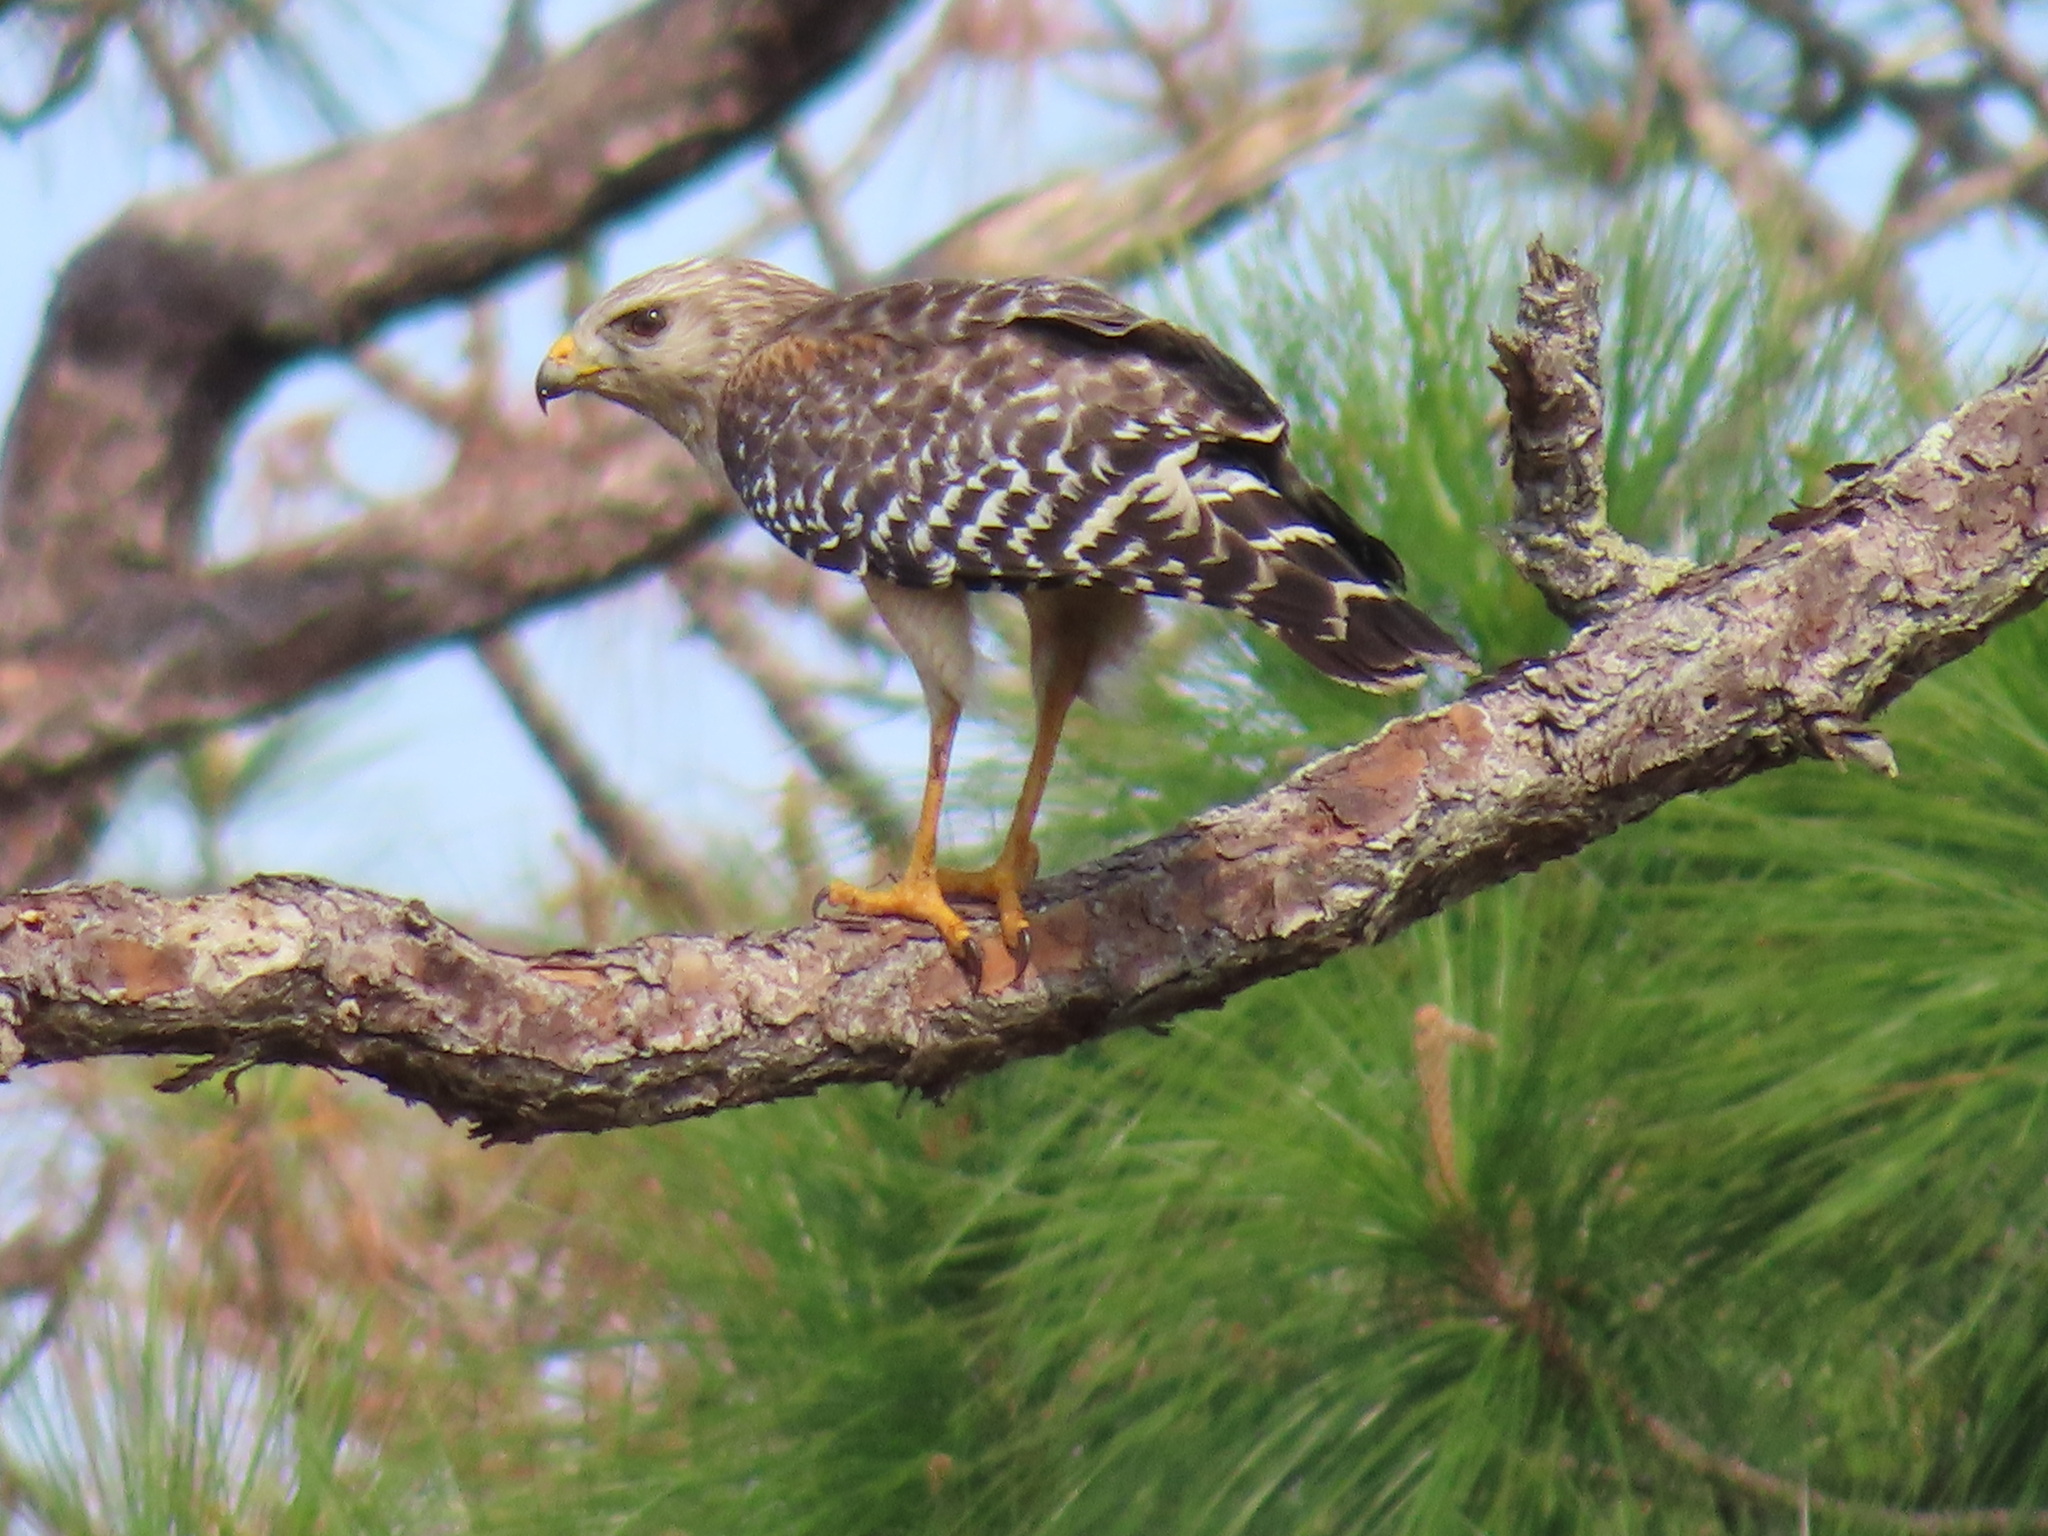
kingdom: Animalia
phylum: Chordata
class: Aves
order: Accipitriformes
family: Accipitridae
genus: Buteo
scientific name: Buteo lineatus
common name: Red-shouldered hawk
